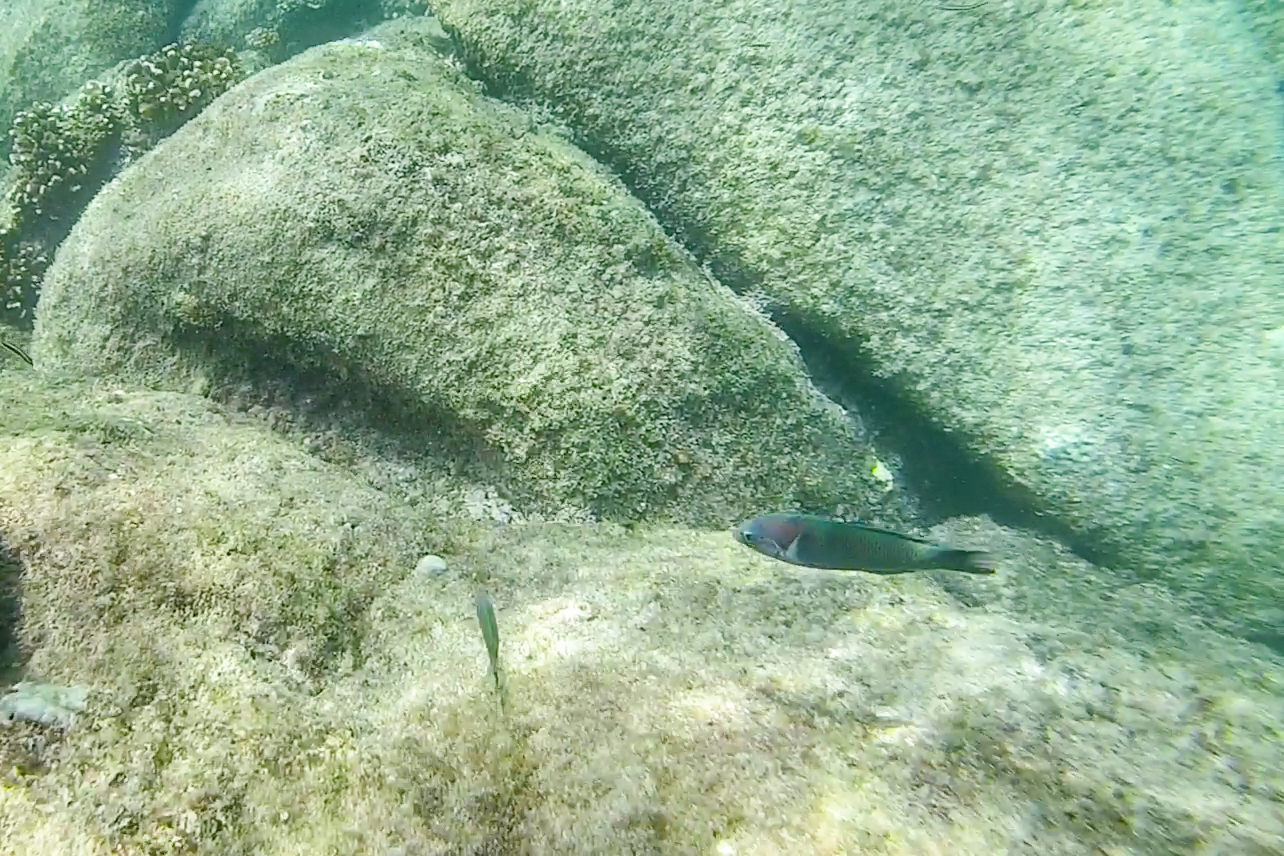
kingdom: Animalia
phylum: Chordata
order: Perciformes
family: Labridae
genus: Thalassoma
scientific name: Thalassoma grammaticum
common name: Sunset wrasse
